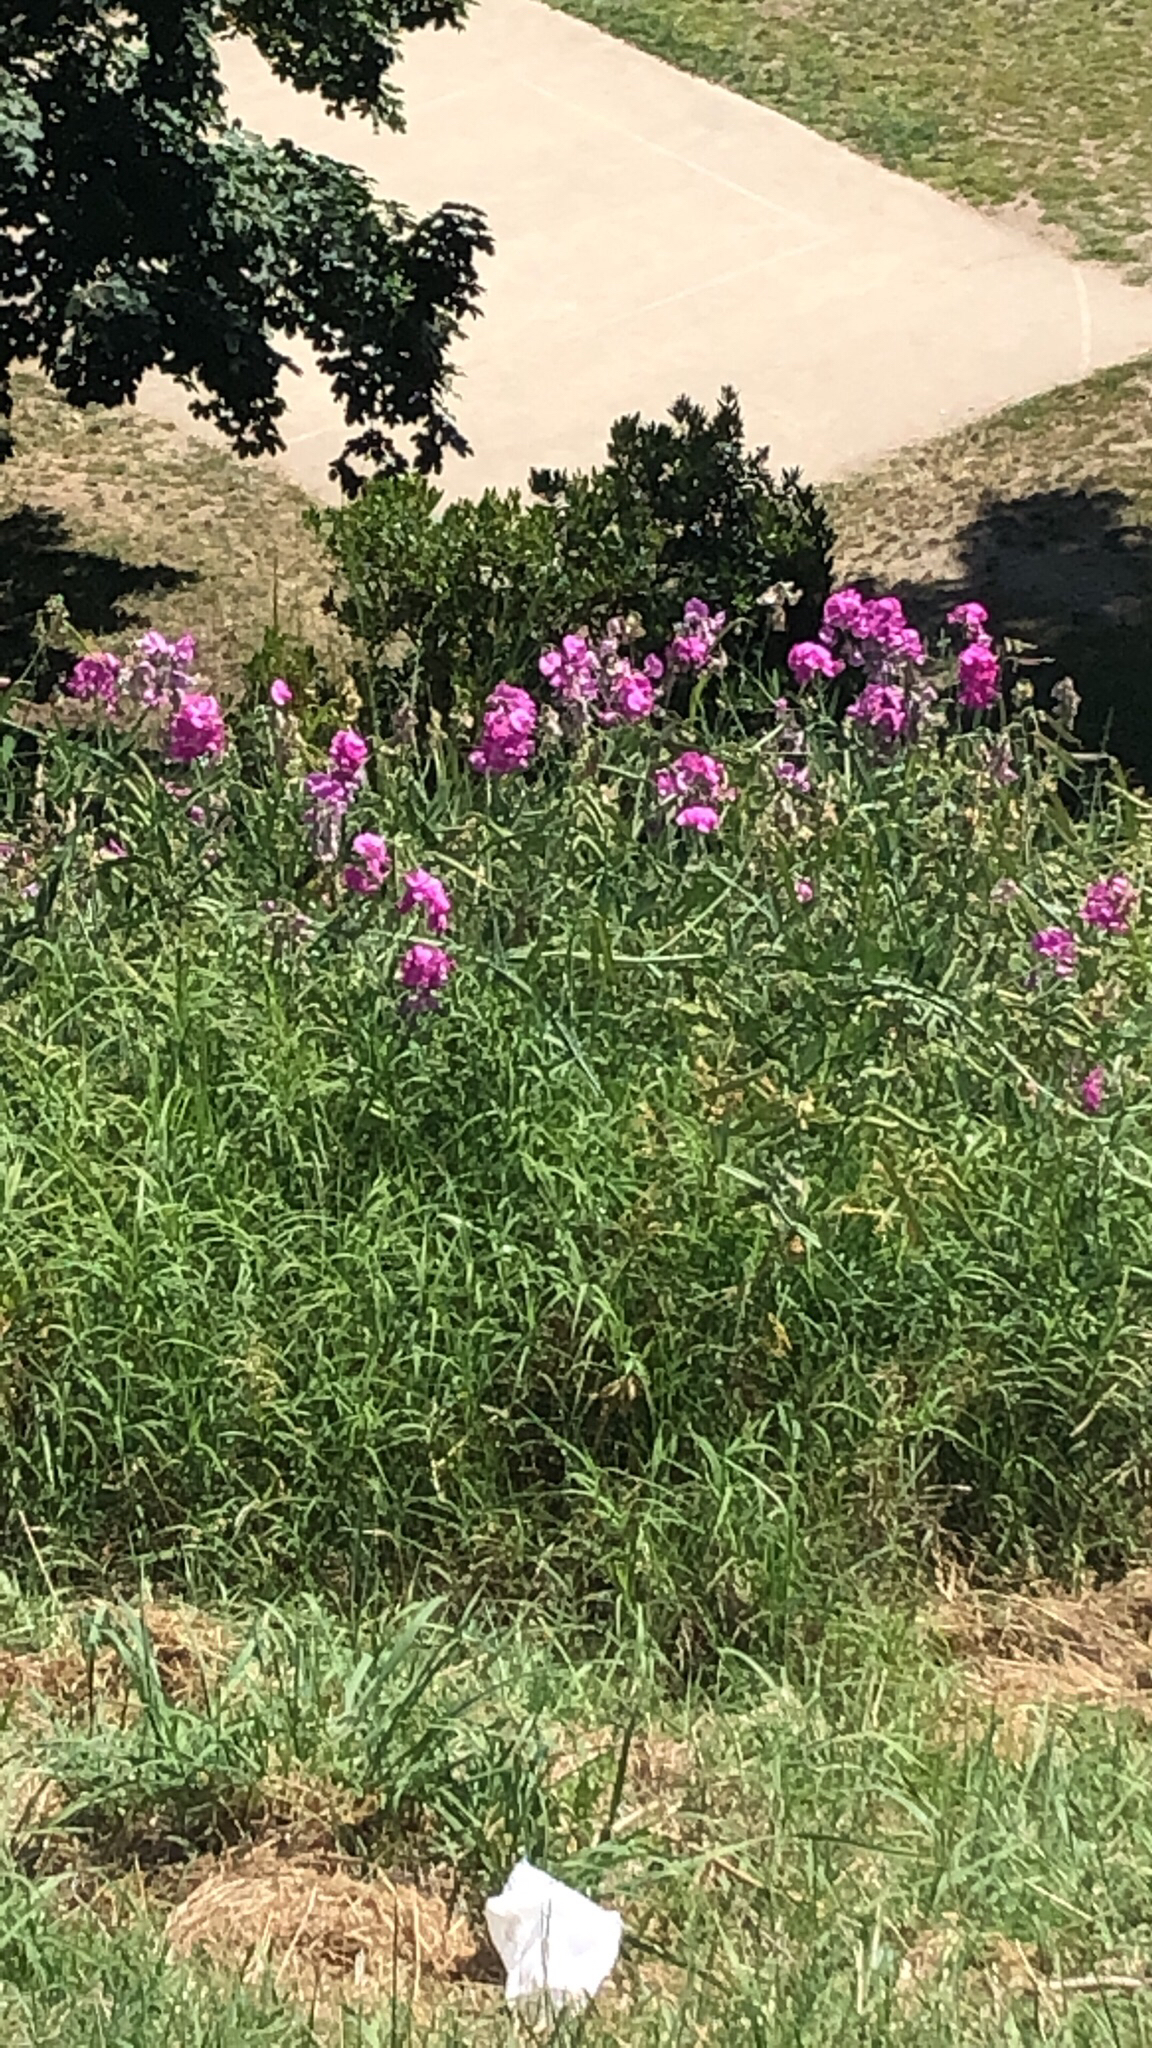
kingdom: Plantae
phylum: Tracheophyta
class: Magnoliopsida
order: Fabales
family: Fabaceae
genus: Lathyrus
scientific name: Lathyrus latifolius
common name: Perennial pea
